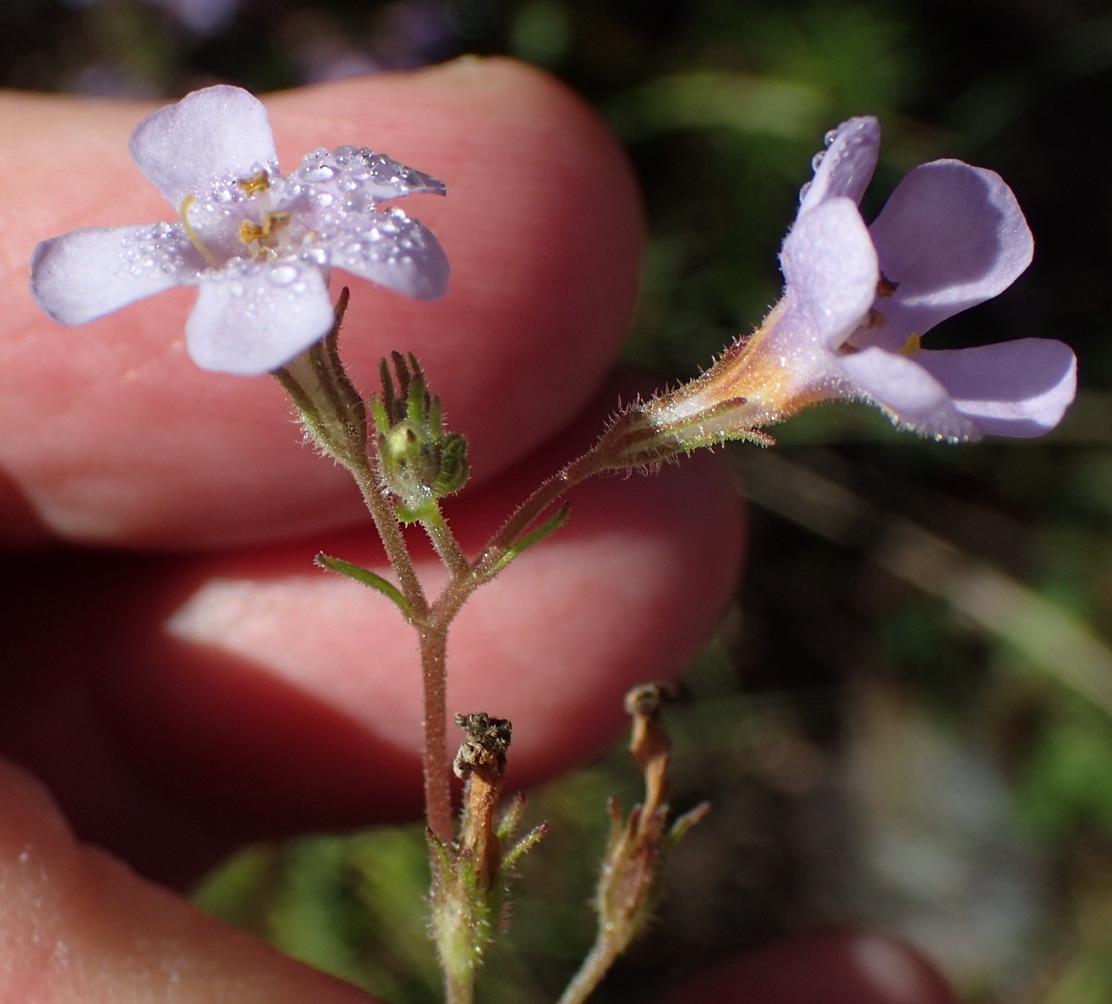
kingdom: Plantae
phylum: Tracheophyta
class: Magnoliopsida
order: Lamiales
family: Scrophulariaceae
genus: Chaenostoma
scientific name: Chaenostoma polyanthum
